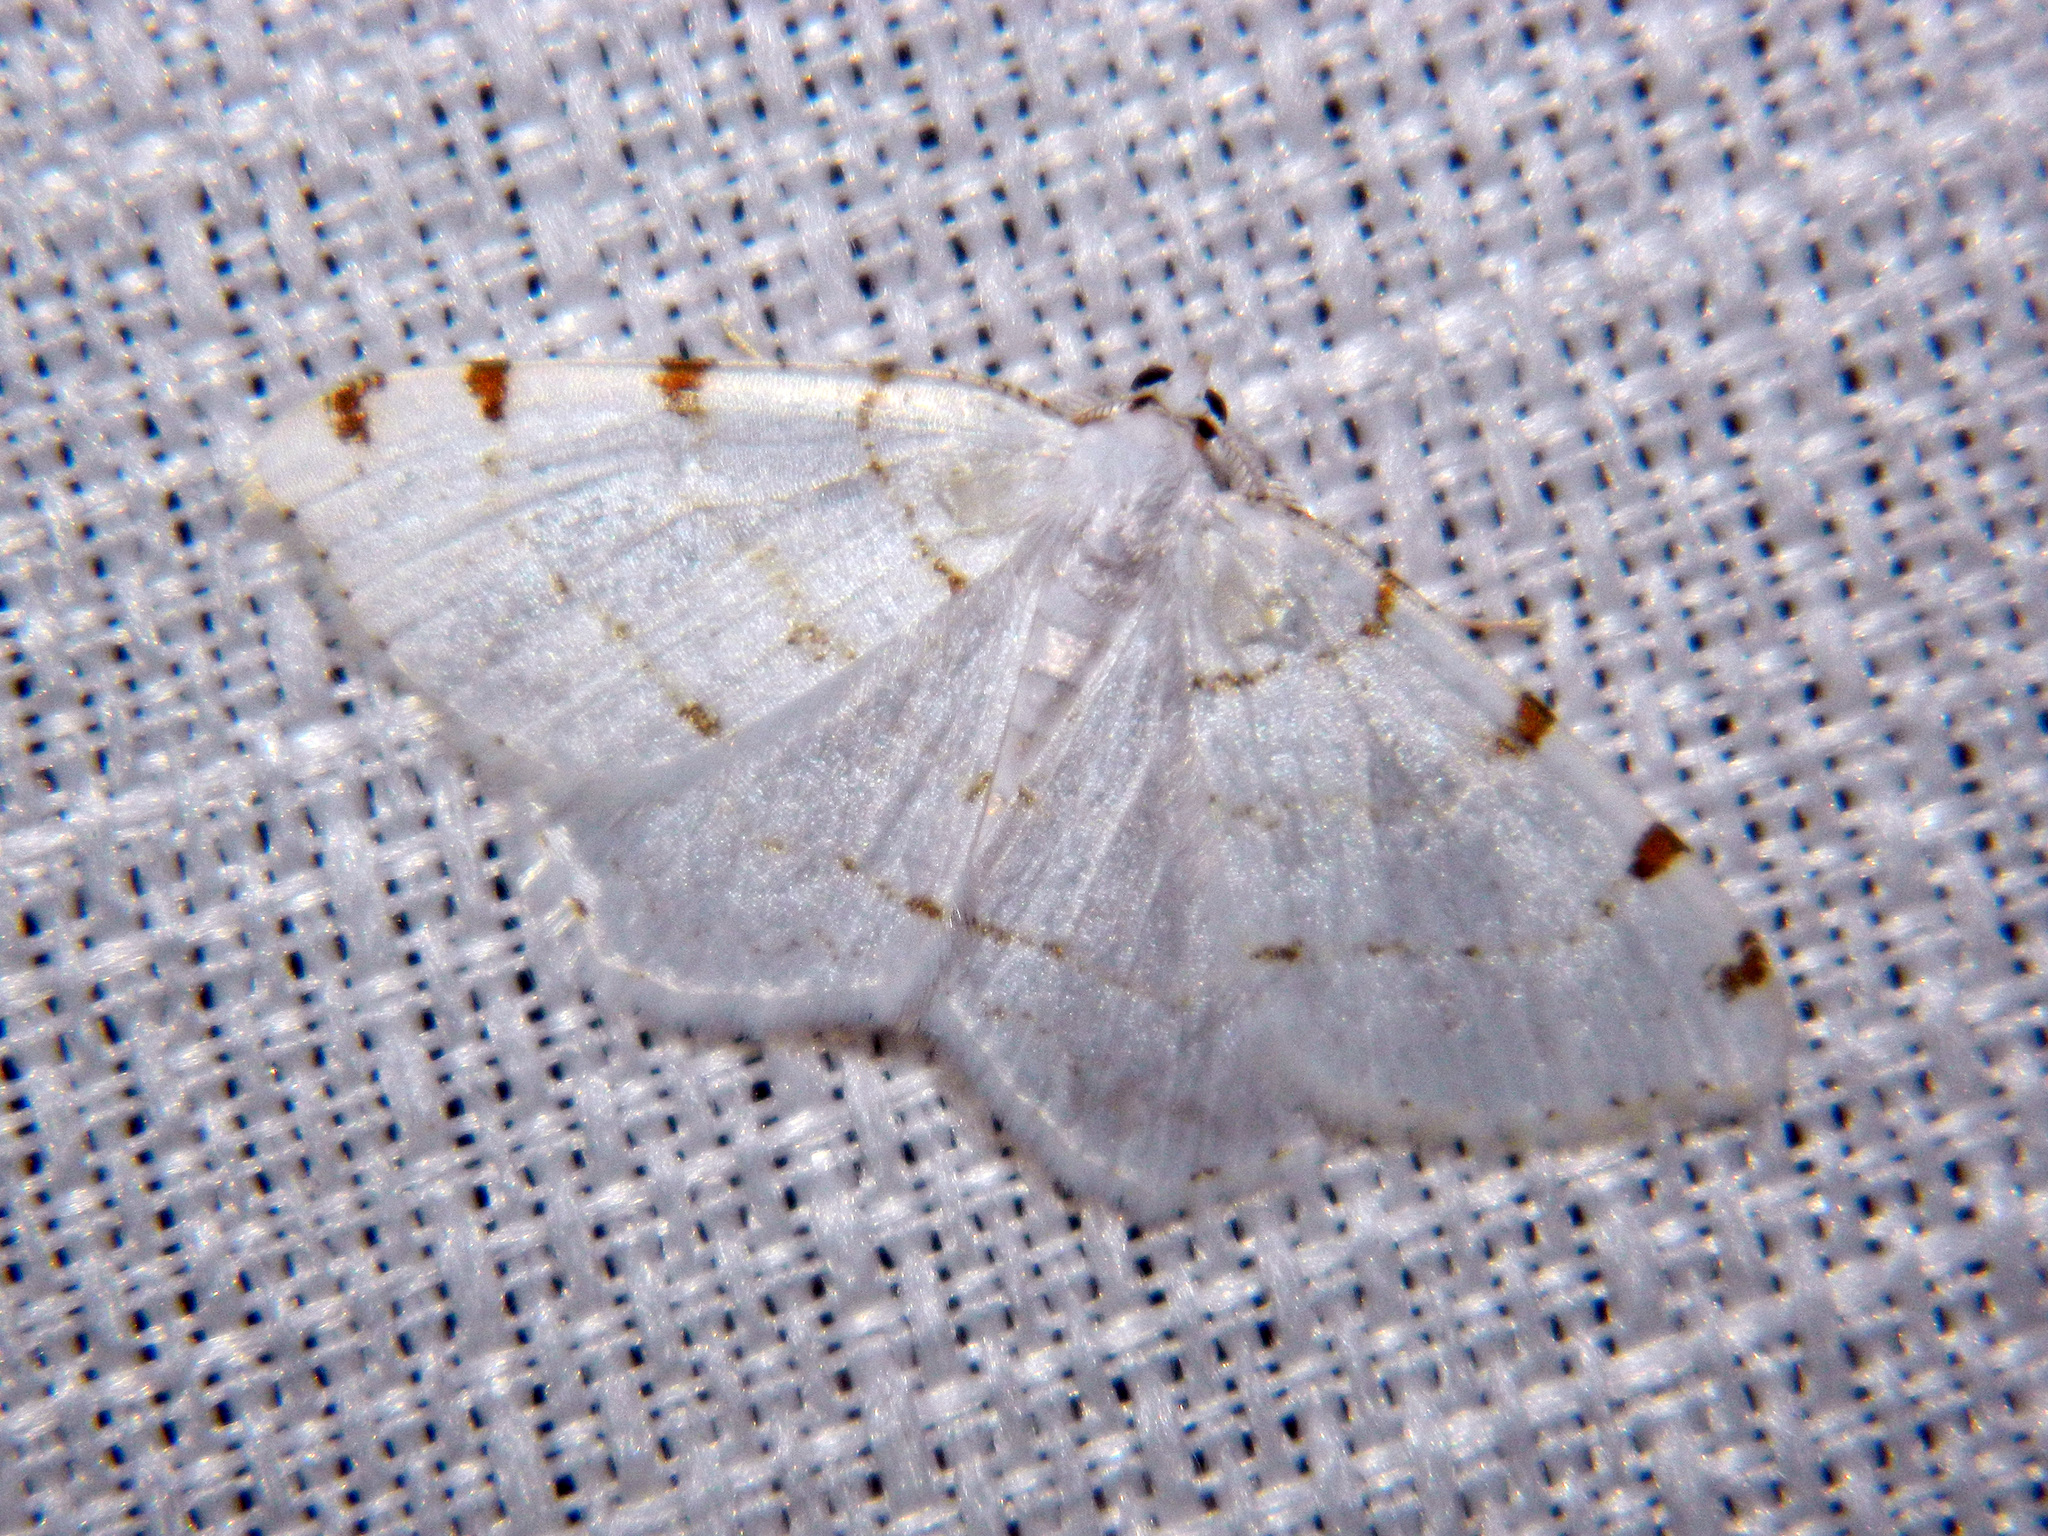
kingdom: Animalia
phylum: Arthropoda
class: Insecta
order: Lepidoptera
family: Geometridae
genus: Macaria
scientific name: Macaria pustularia
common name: Lesser maple spanworm moth
